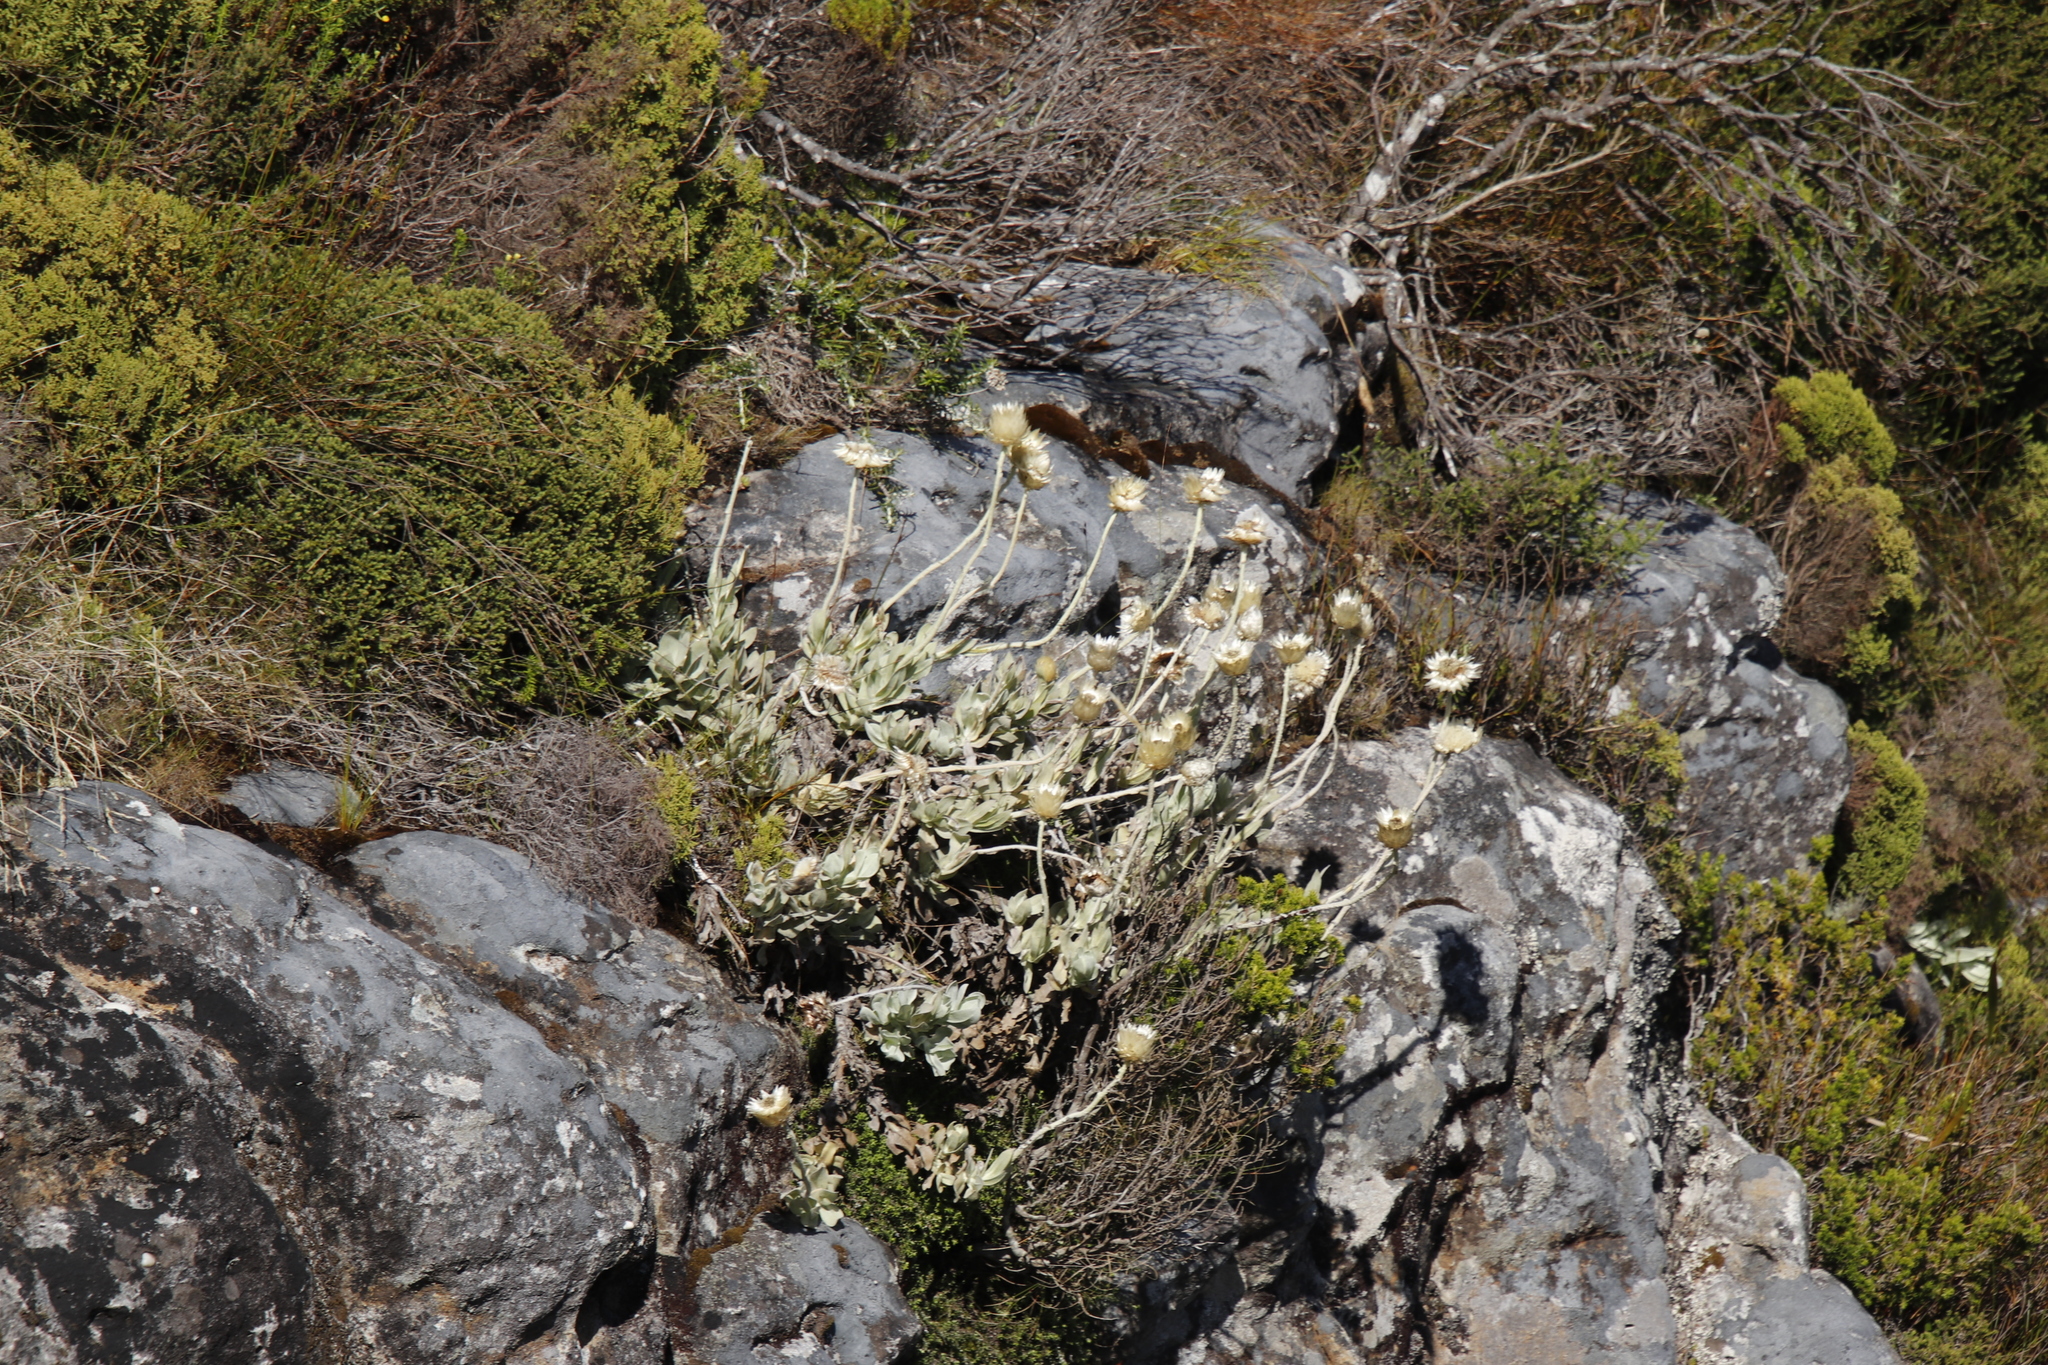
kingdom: Plantae
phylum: Tracheophyta
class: Magnoliopsida
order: Asterales
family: Asteraceae
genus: Syncarpha
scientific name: Syncarpha speciosissima
